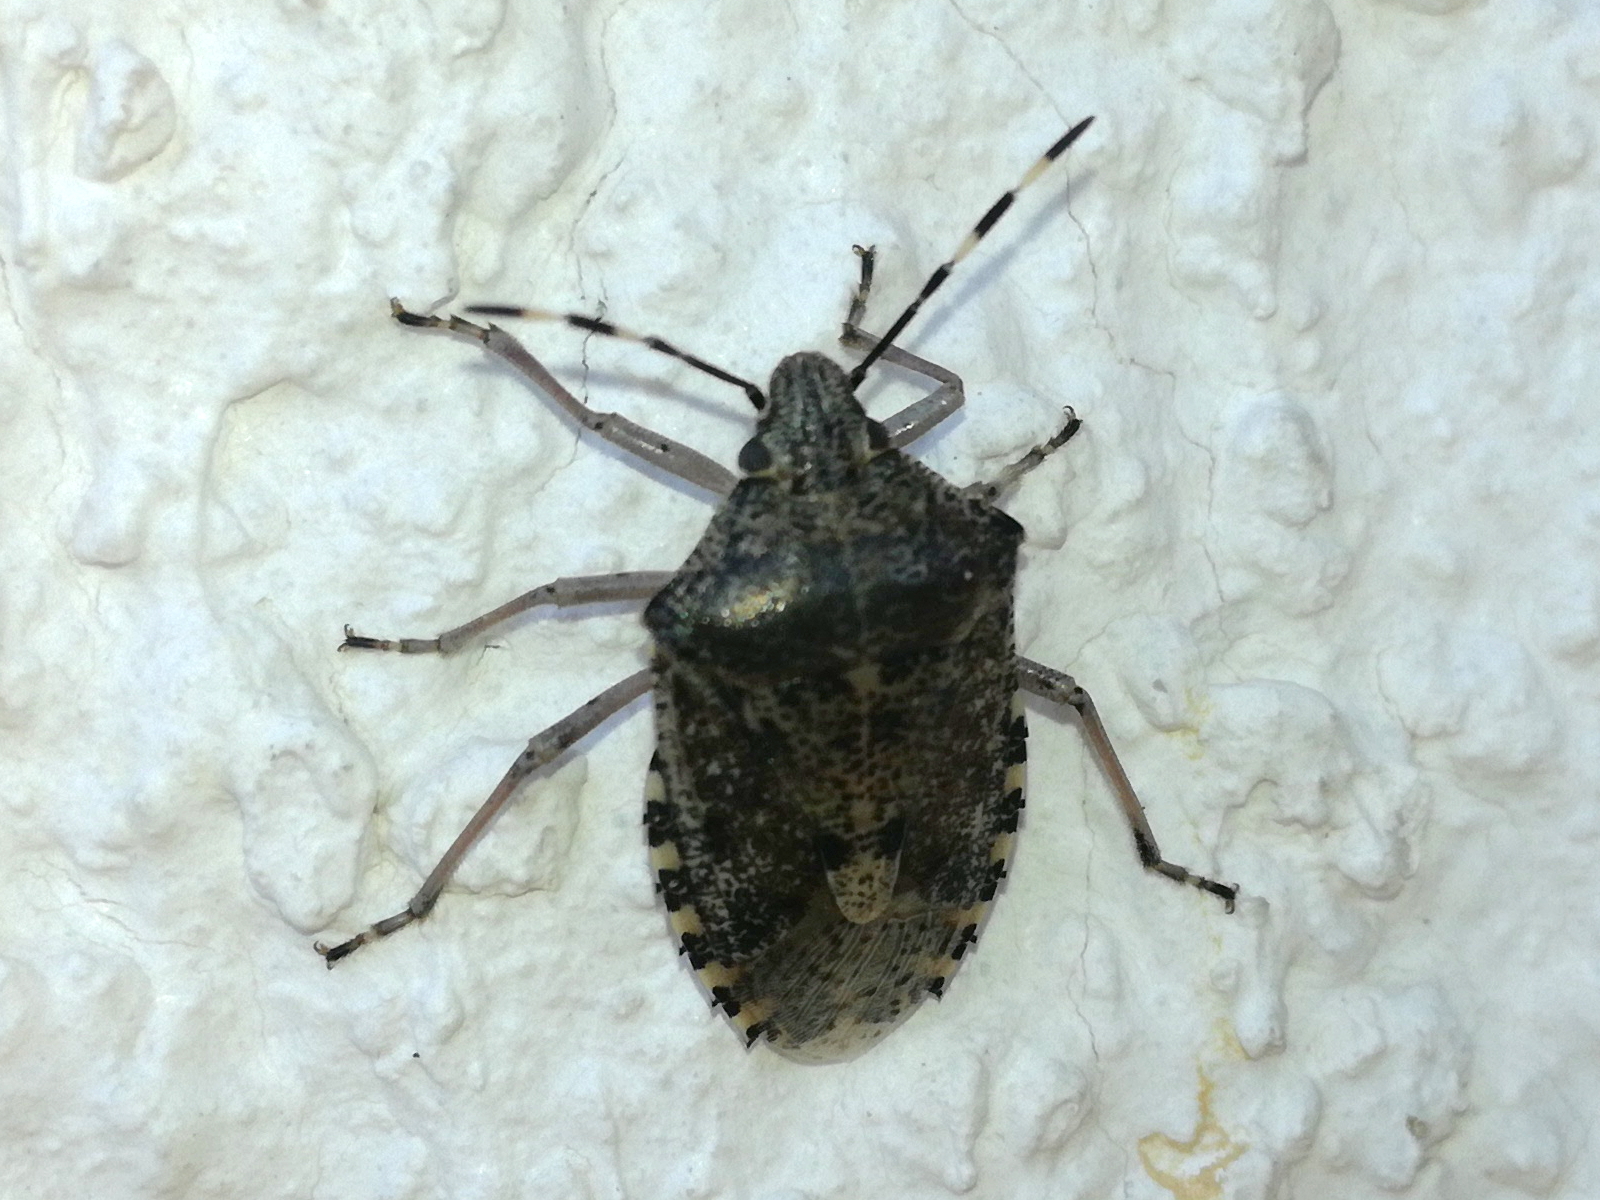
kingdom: Animalia
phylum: Arthropoda
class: Insecta
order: Hemiptera
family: Pentatomidae
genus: Rhaphigaster
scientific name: Rhaphigaster nebulosa
